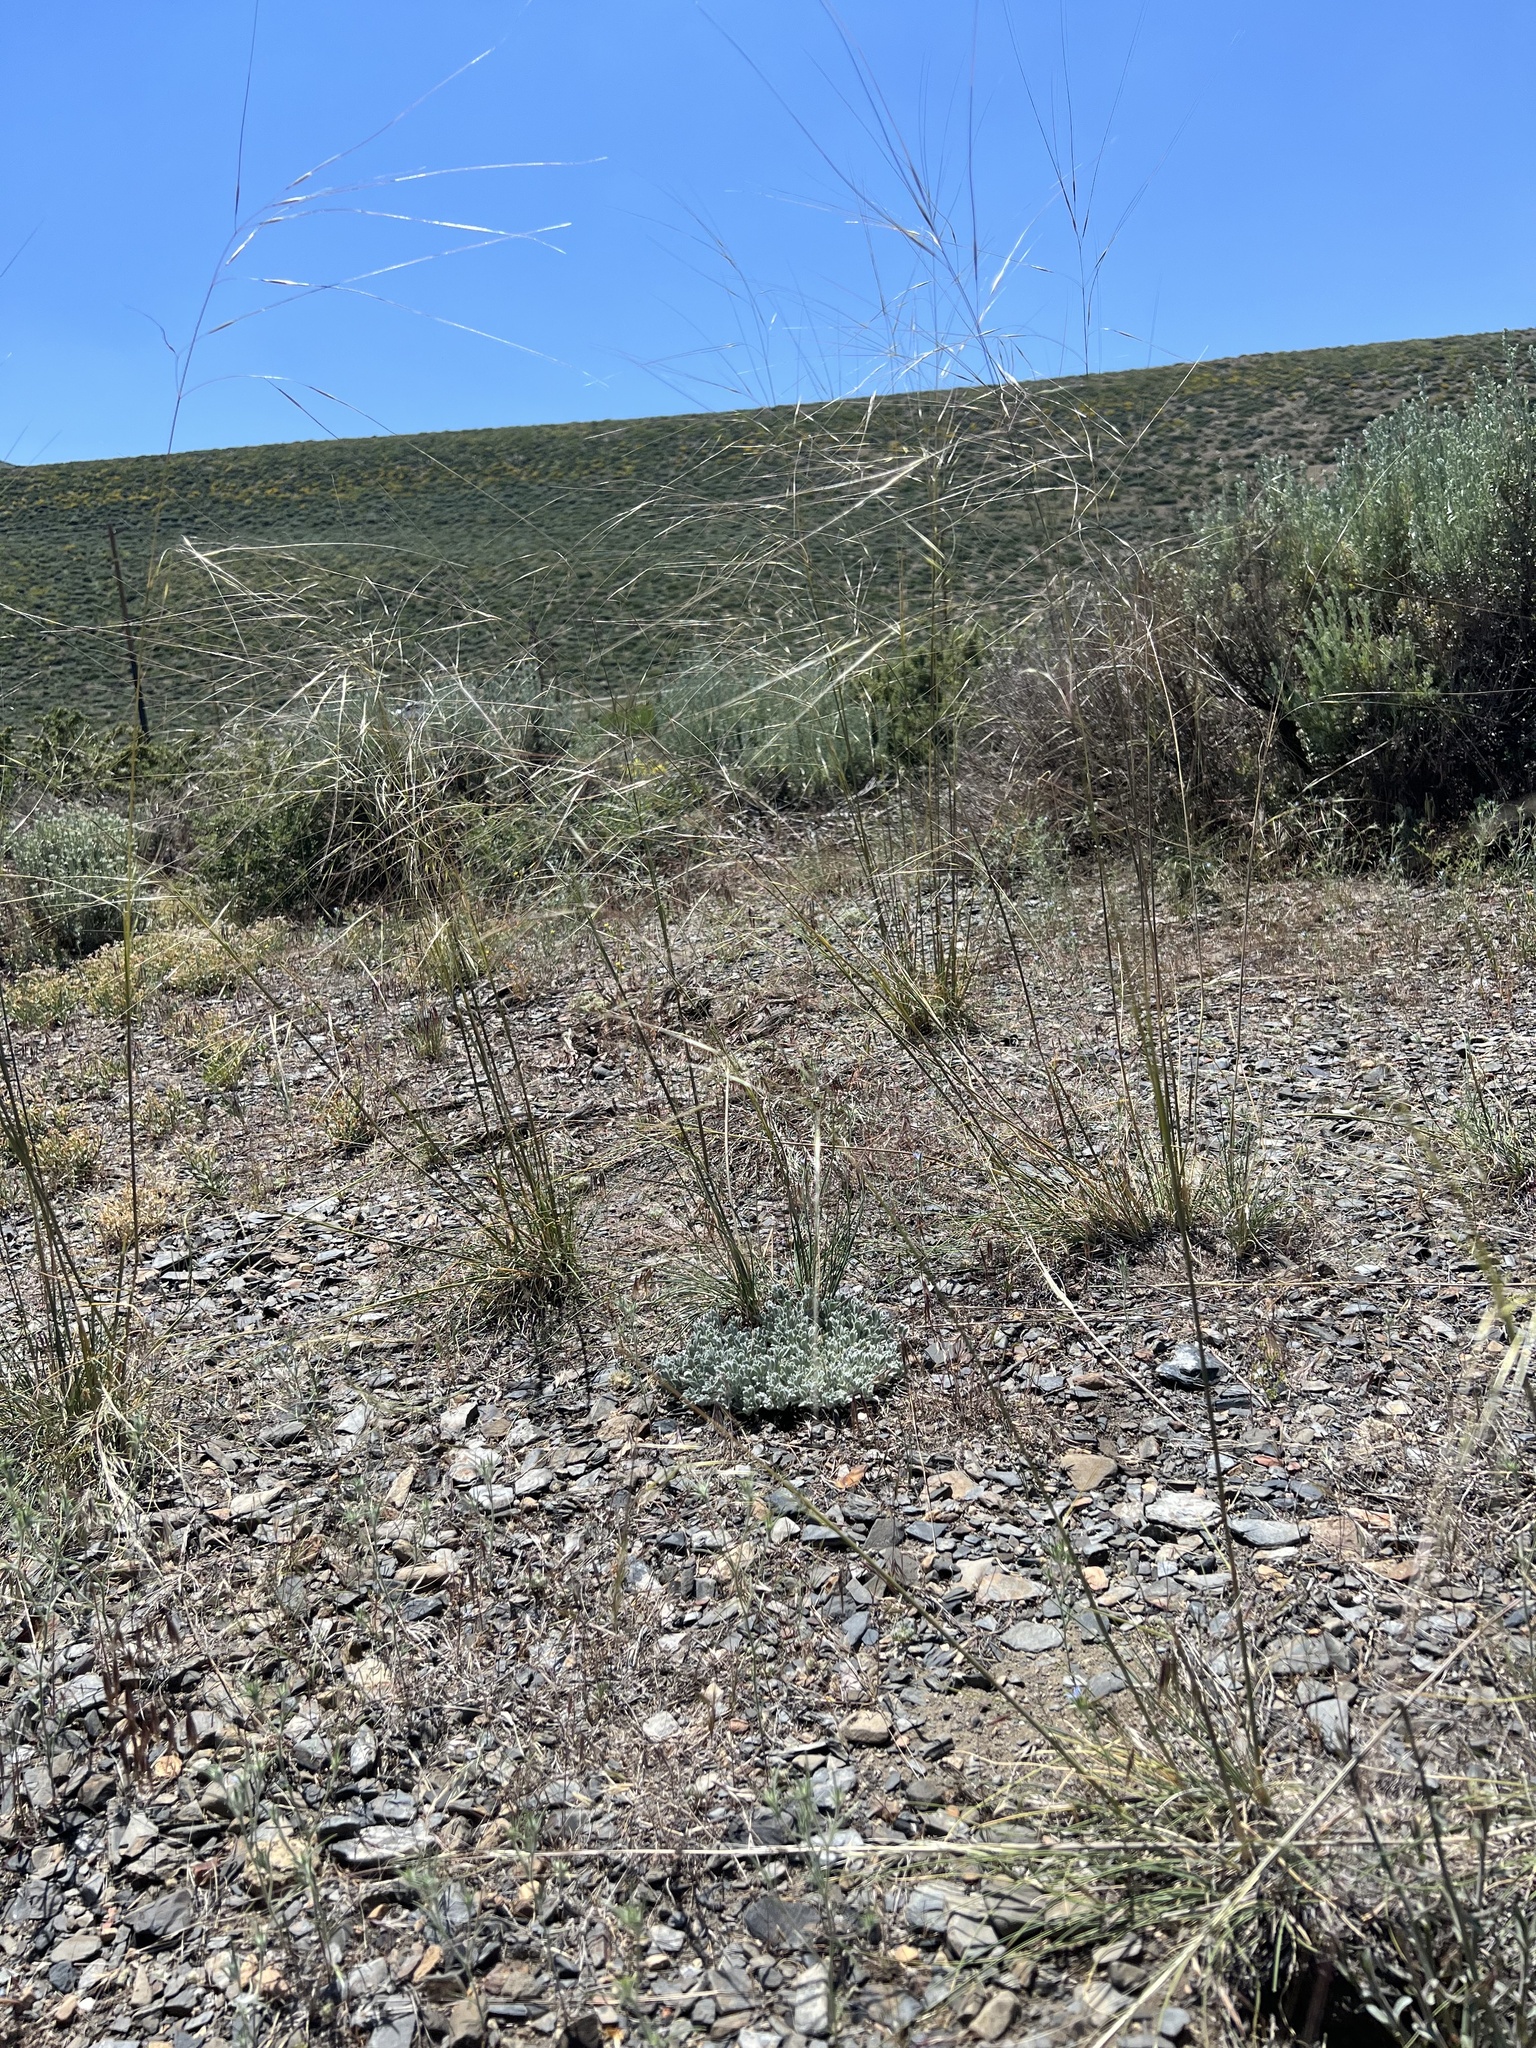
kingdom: Plantae
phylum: Tracheophyta
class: Liliopsida
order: Poales
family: Poaceae
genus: Hesperostipa
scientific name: Hesperostipa comata
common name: Needle-and-thread grass
